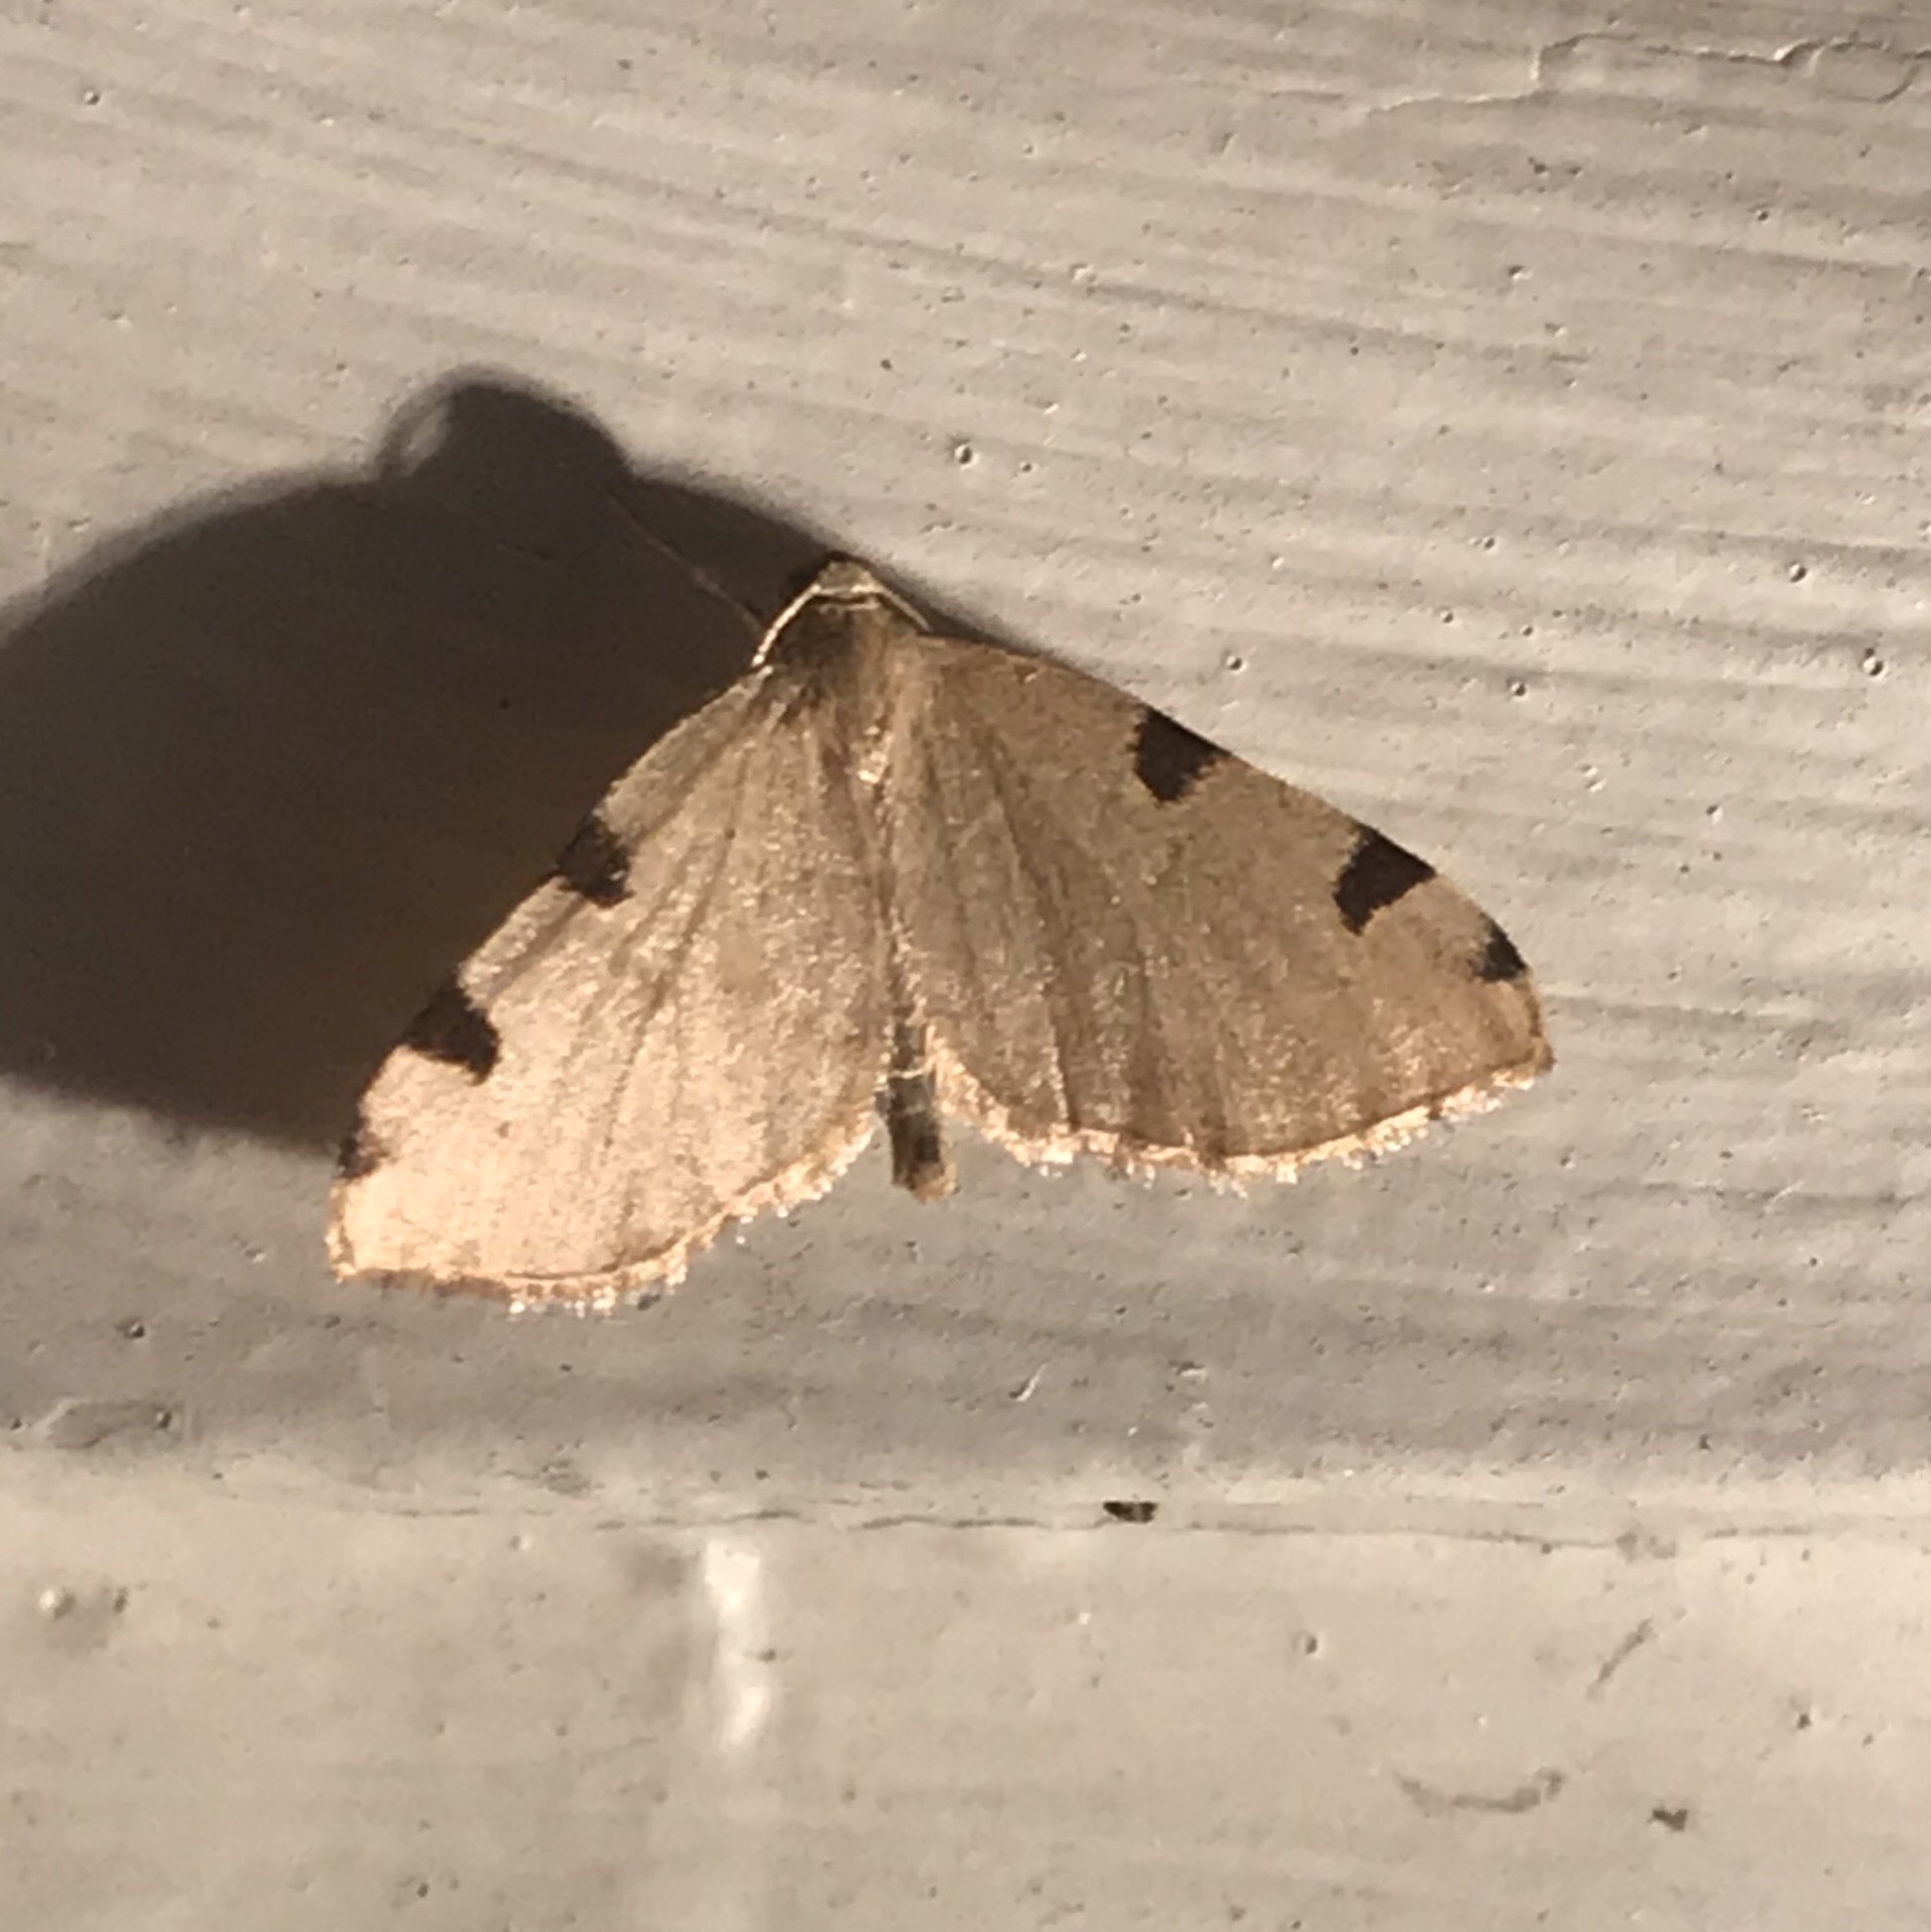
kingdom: Animalia
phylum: Arthropoda
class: Insecta
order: Lepidoptera
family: Geometridae
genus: Heterophleps
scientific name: Heterophleps triguttaria
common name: Three-spotted fillip
